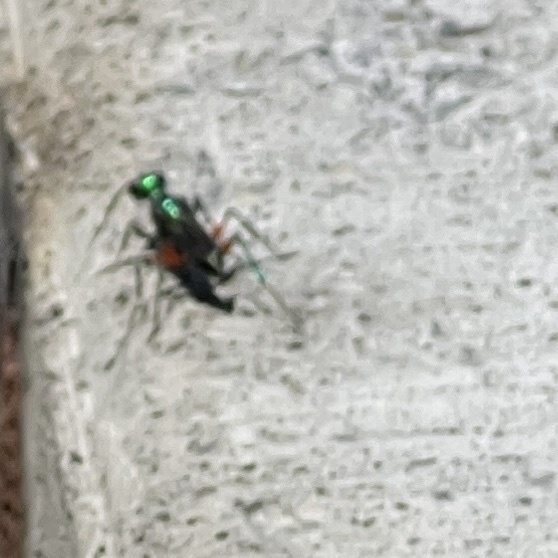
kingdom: Animalia
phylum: Arthropoda
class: Insecta
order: Hymenoptera
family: Ampulicidae
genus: Ampulex
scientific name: Ampulex compressa
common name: Emerald cockroach wasp
